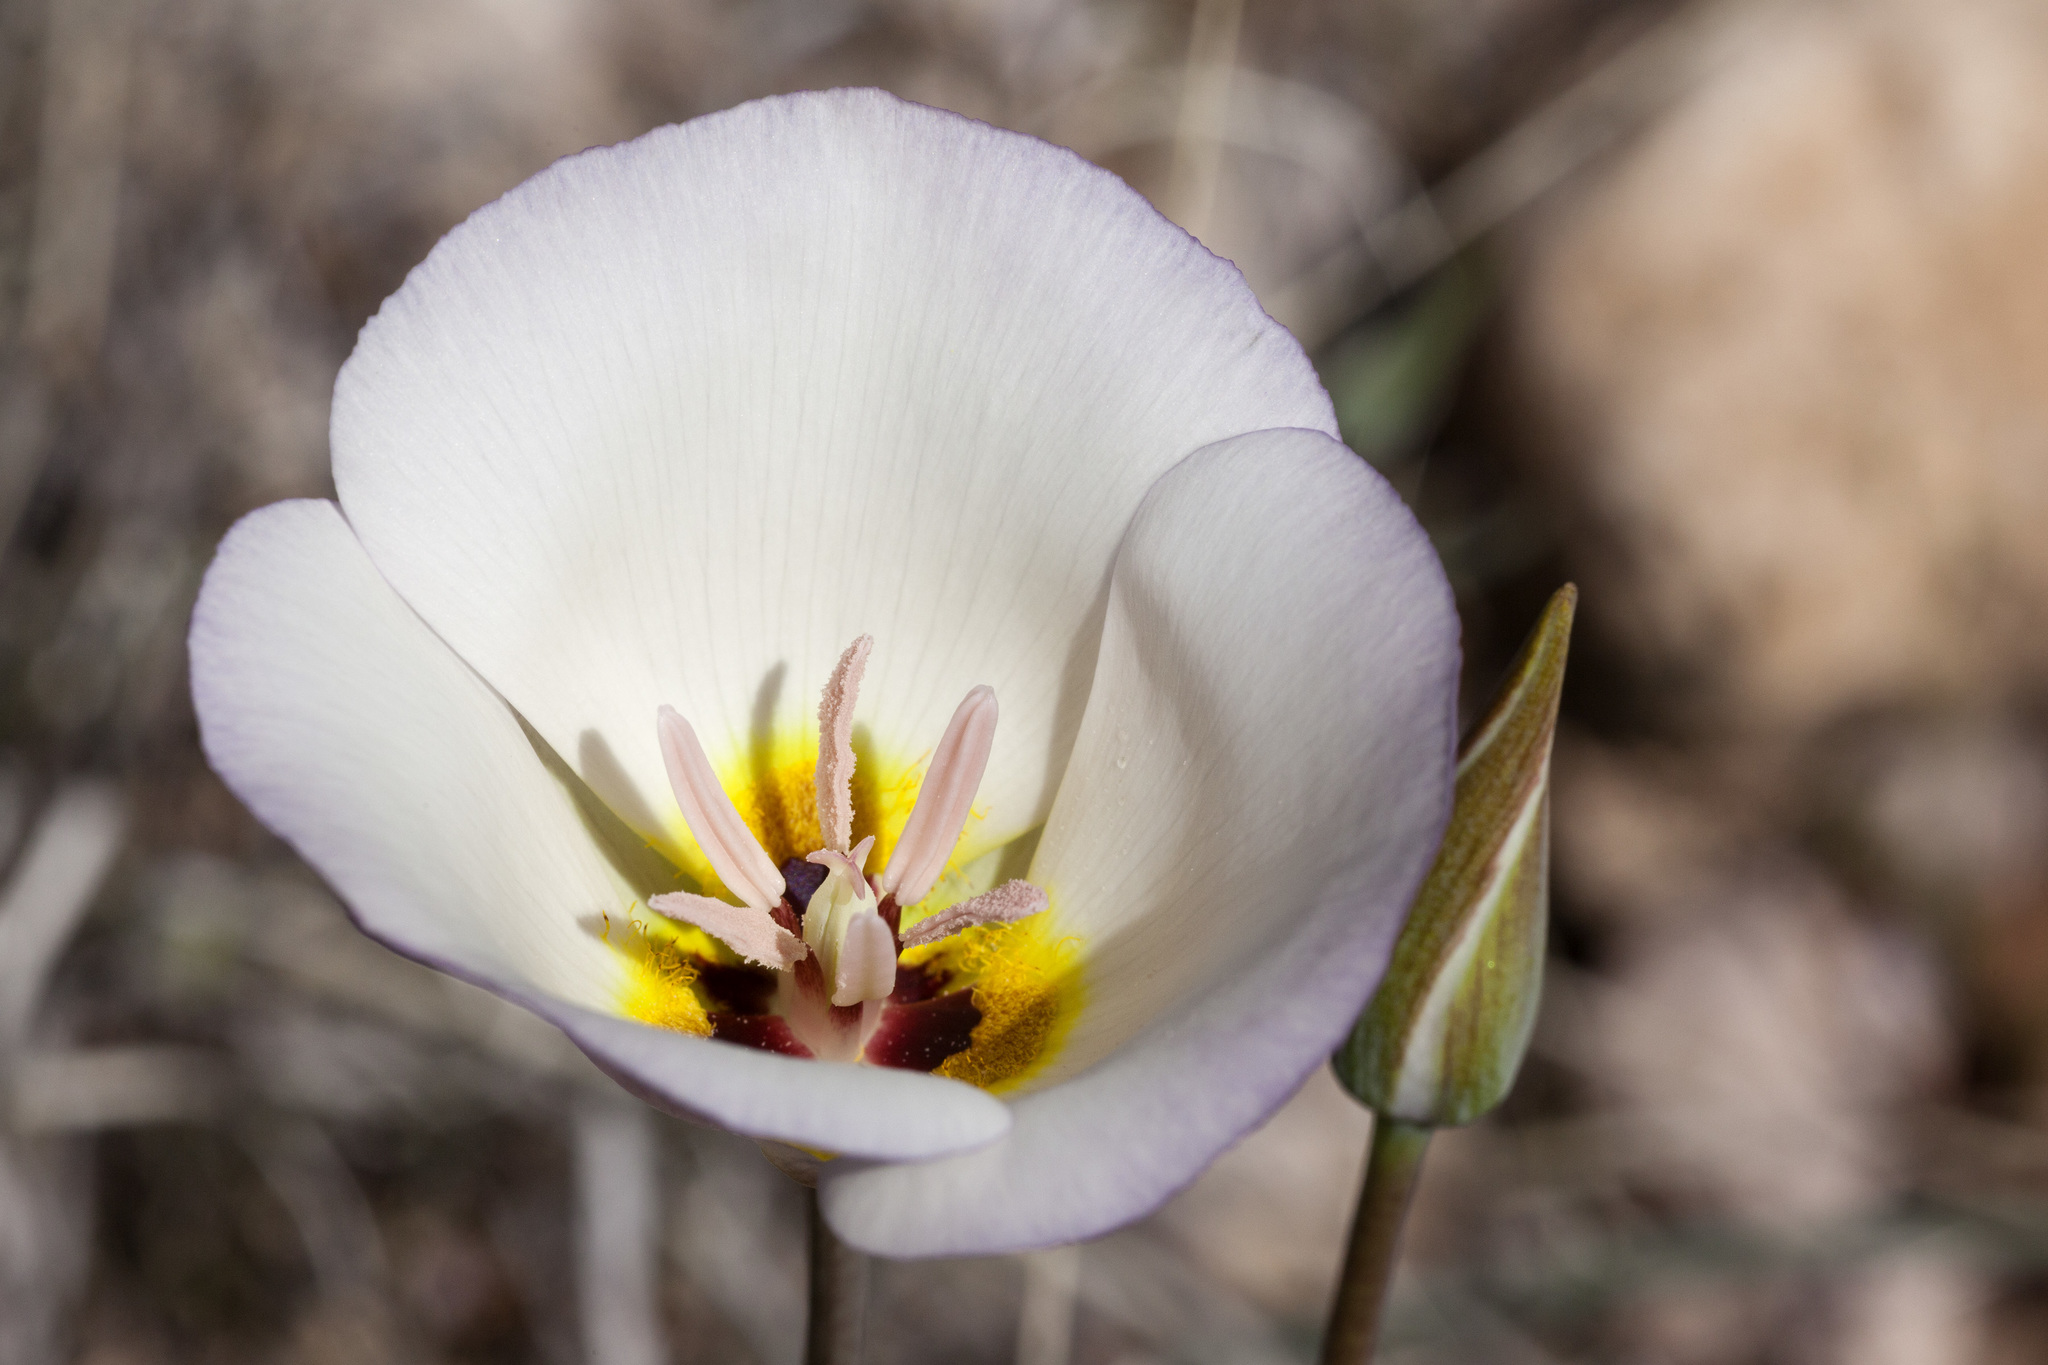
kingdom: Plantae
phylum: Tracheophyta
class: Liliopsida
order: Liliales
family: Liliaceae
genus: Calochortus
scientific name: Calochortus flexuosus
